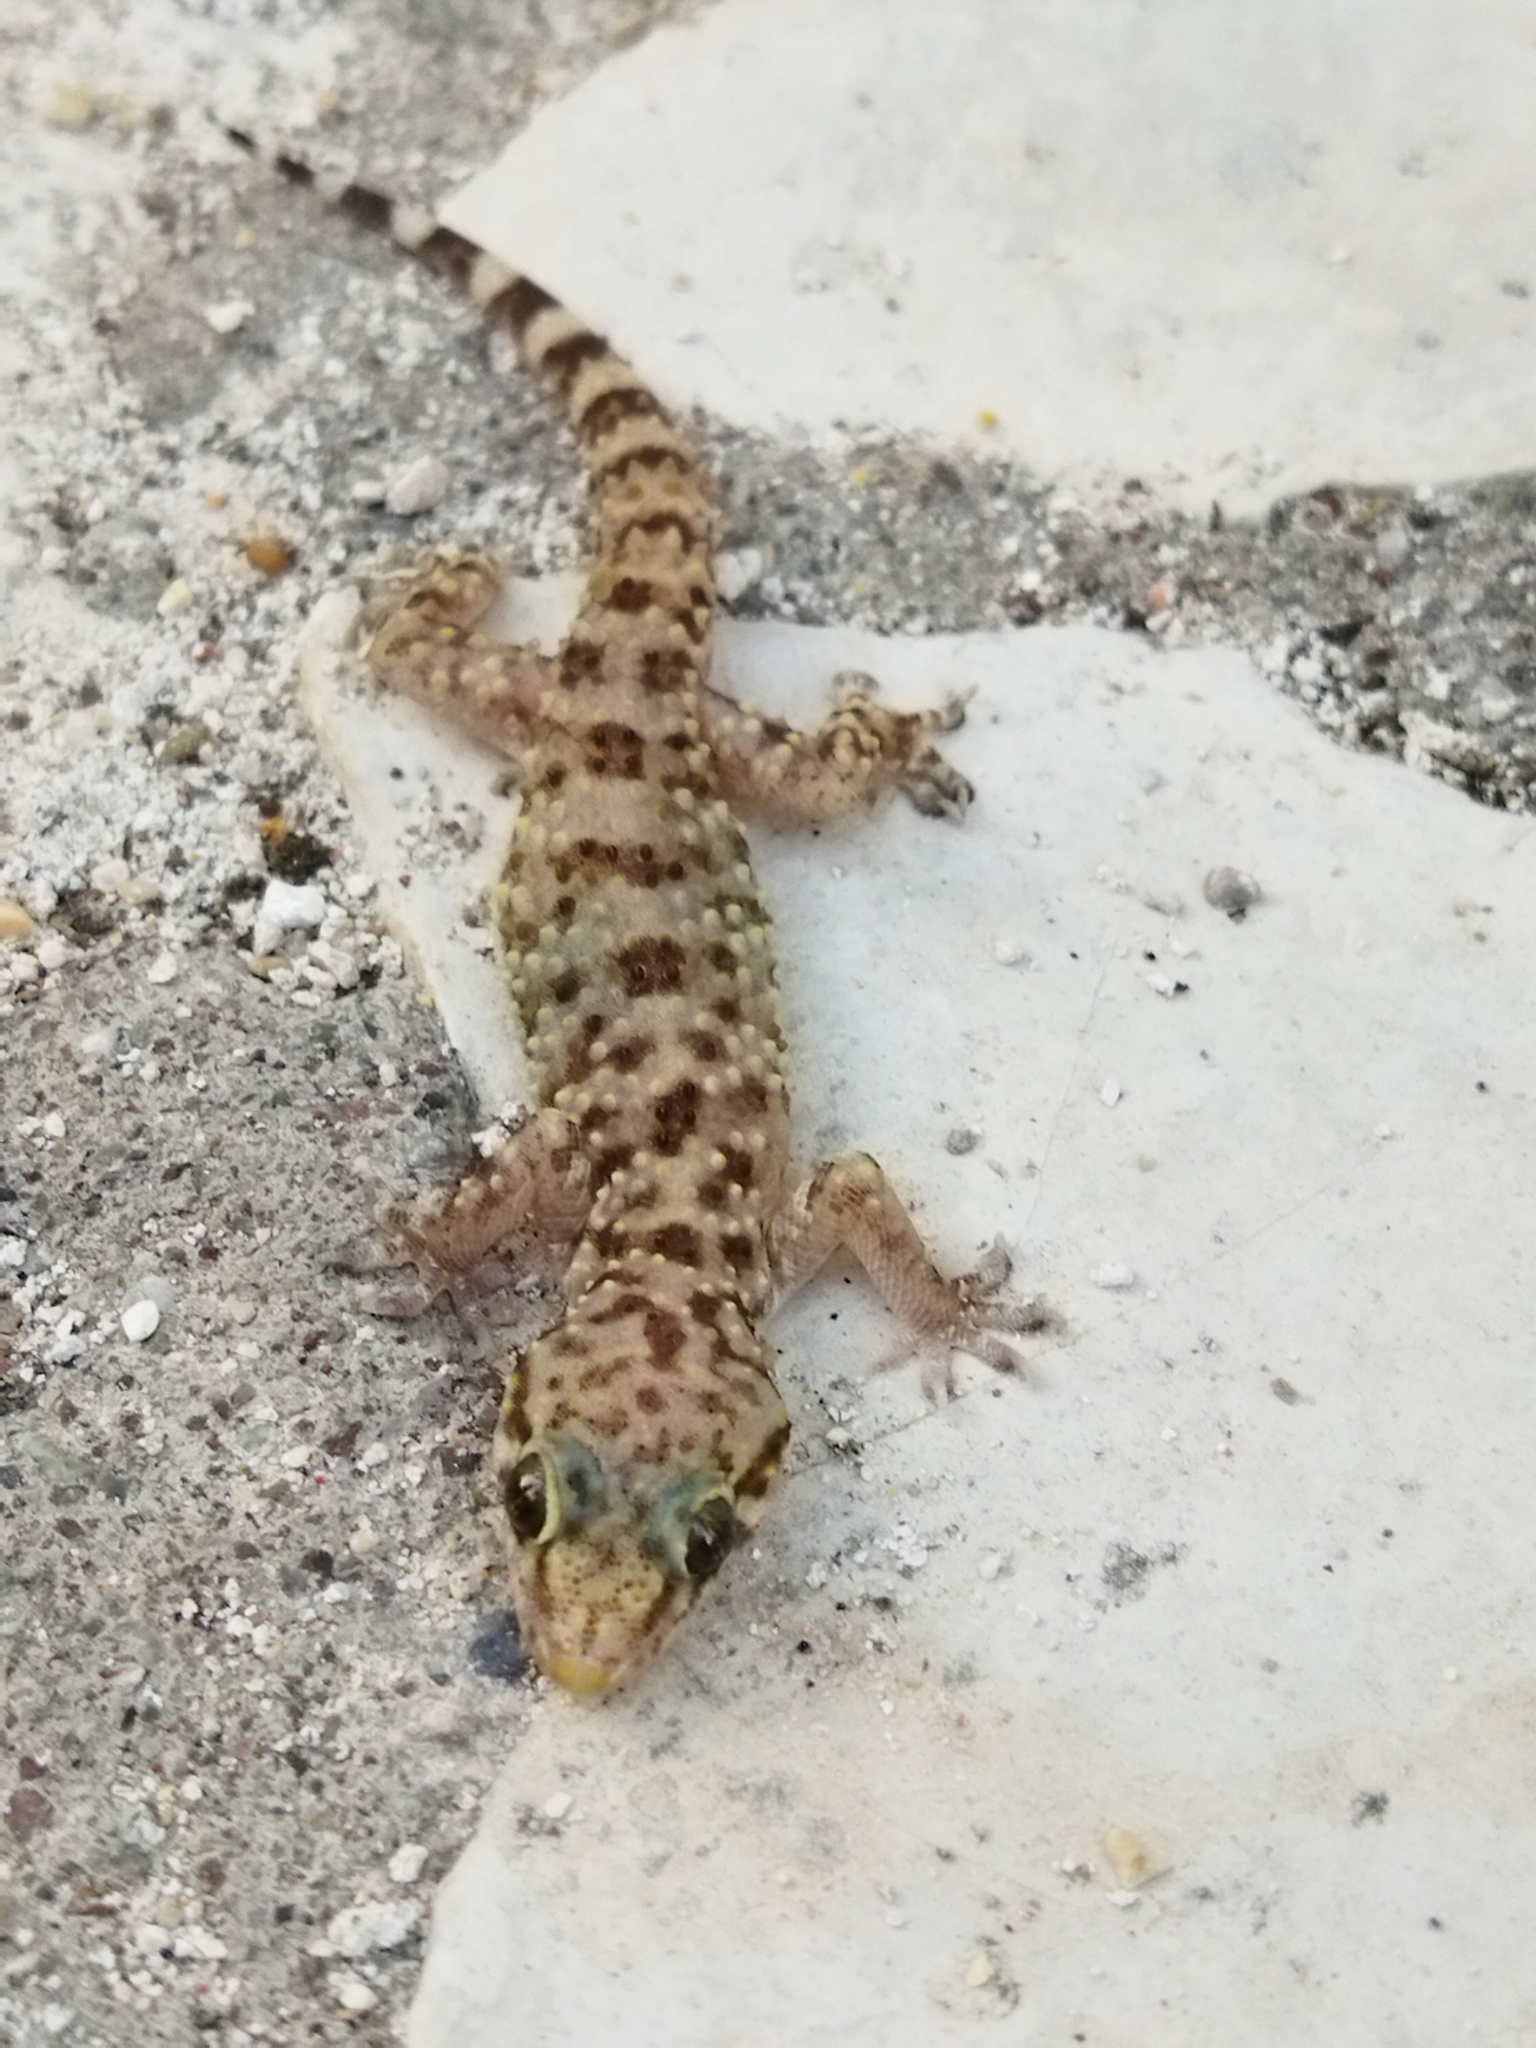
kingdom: Animalia
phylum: Chordata
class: Squamata
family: Gekkonidae
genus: Hemidactylus
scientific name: Hemidactylus turcicus
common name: Turkish gecko
